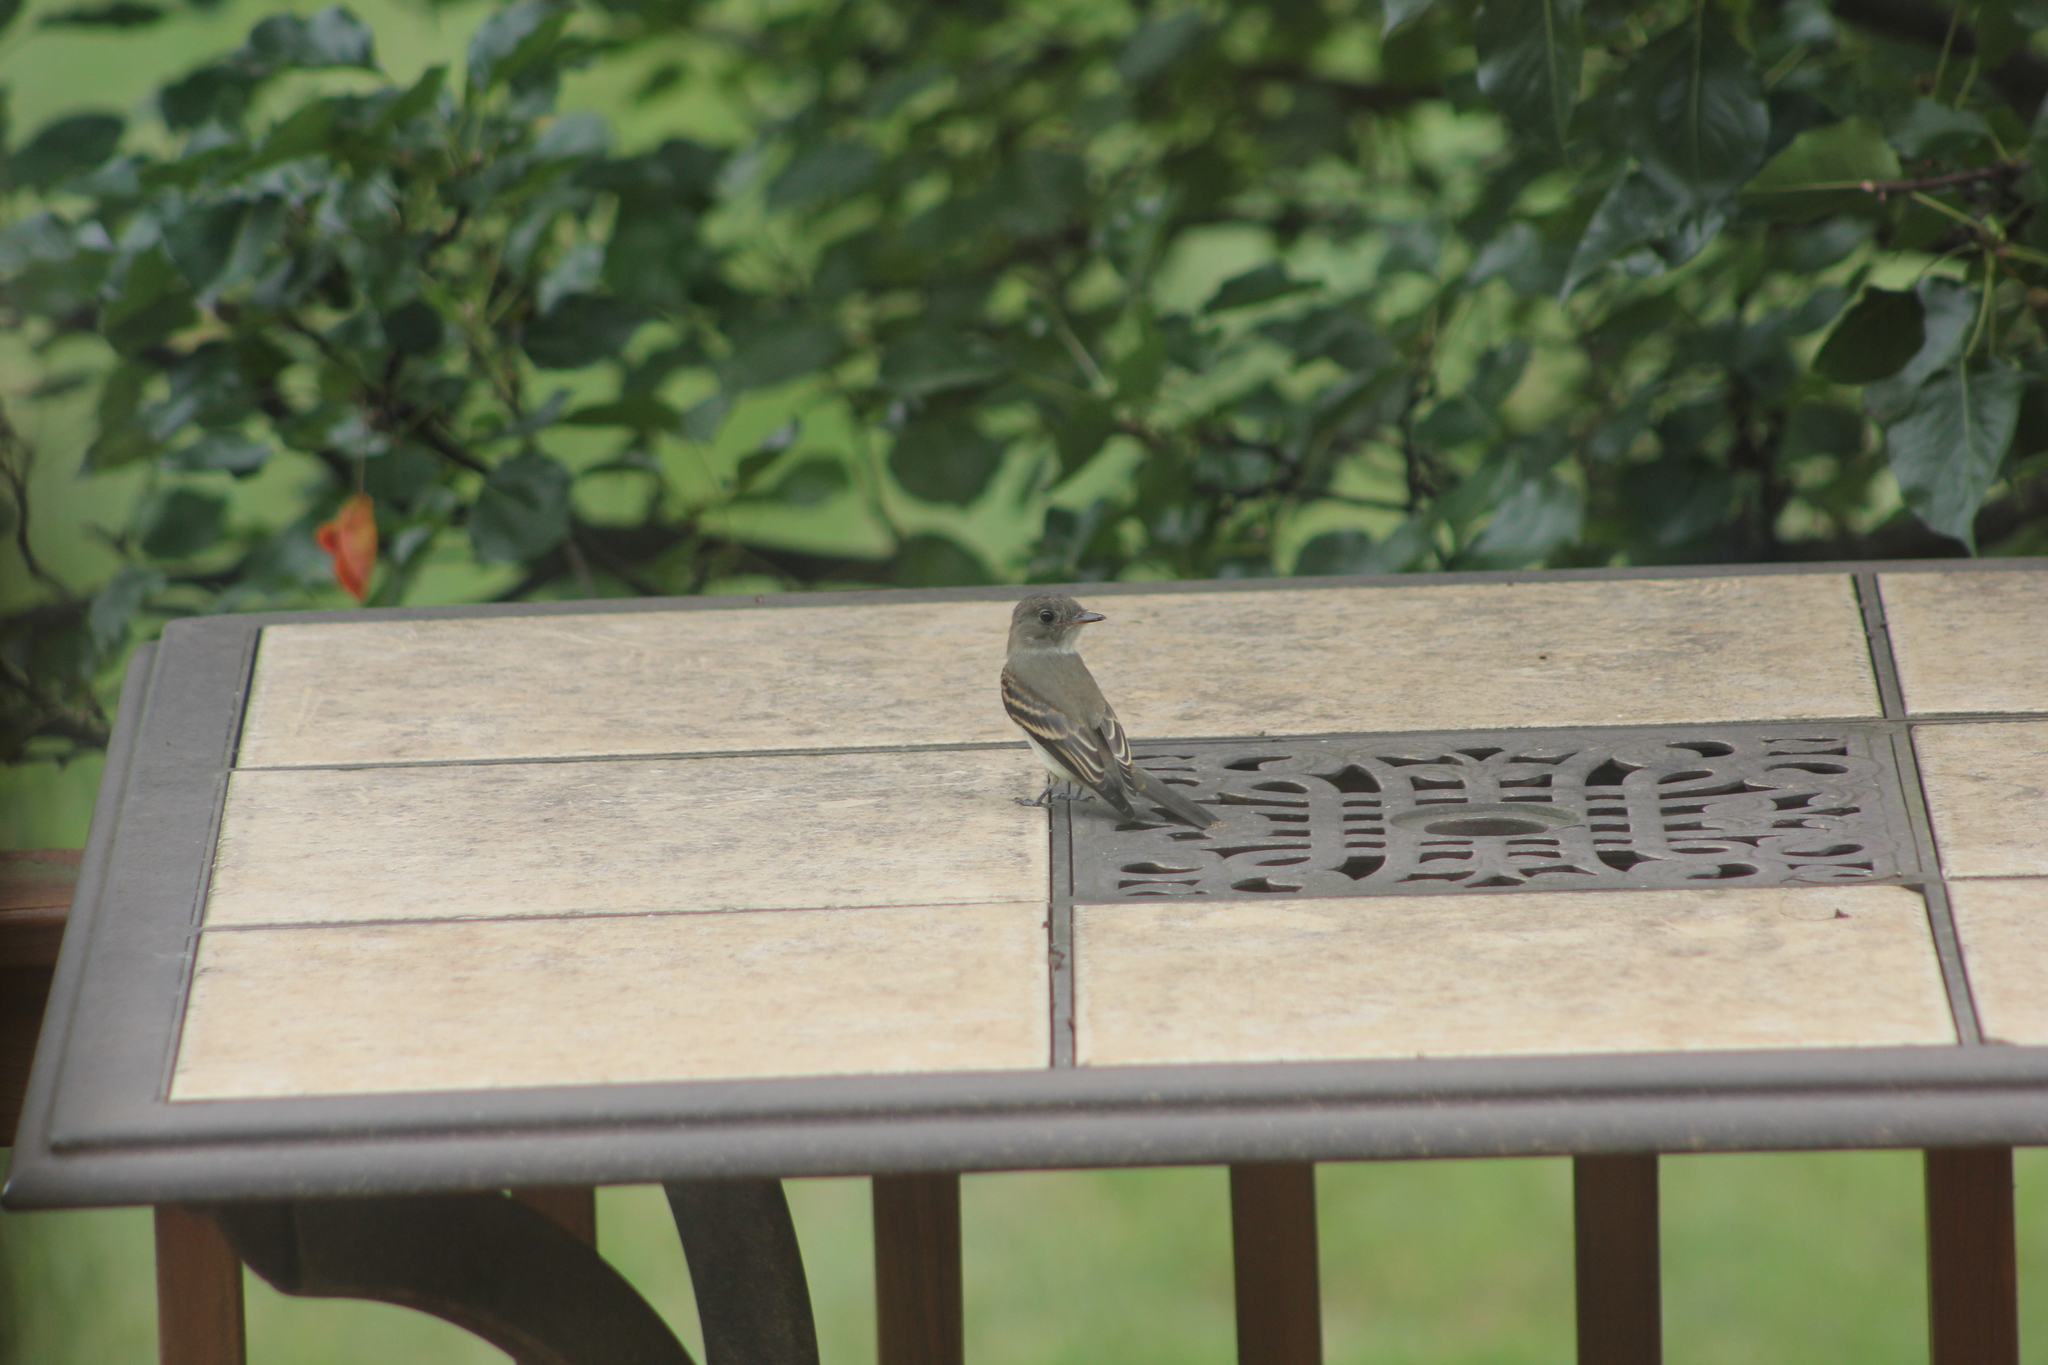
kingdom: Animalia
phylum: Chordata
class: Aves
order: Passeriformes
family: Tyrannidae
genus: Empidonax
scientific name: Empidonax
